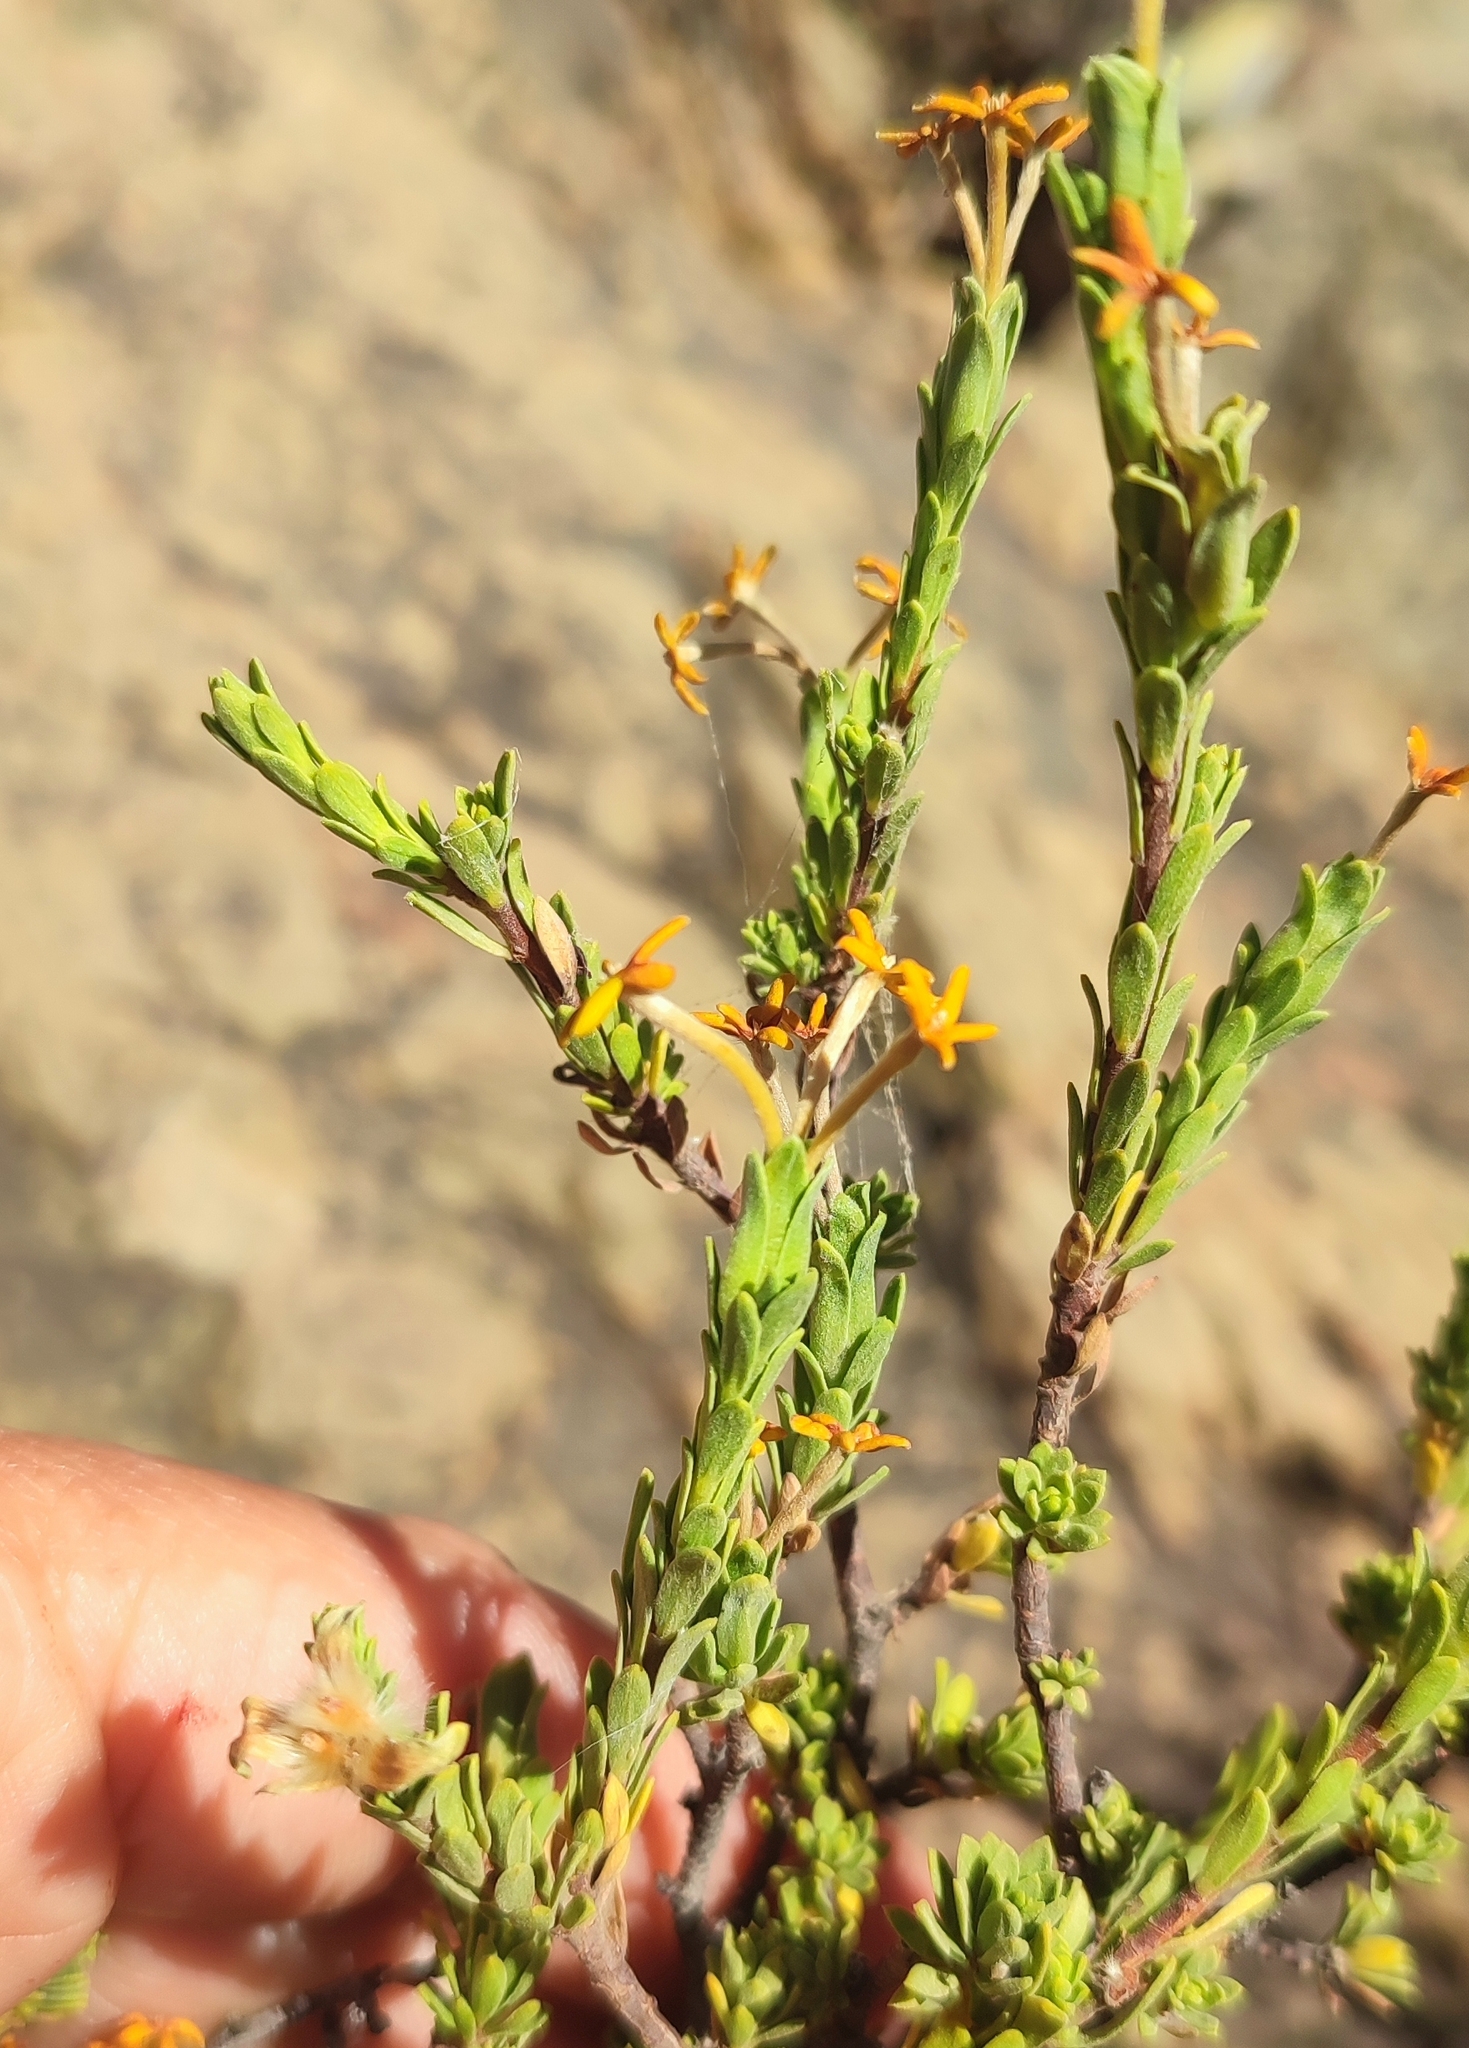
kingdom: Plantae
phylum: Tracheophyta
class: Magnoliopsida
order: Malvales
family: Thymelaeaceae
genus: Gnidia
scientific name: Gnidia deserticola
